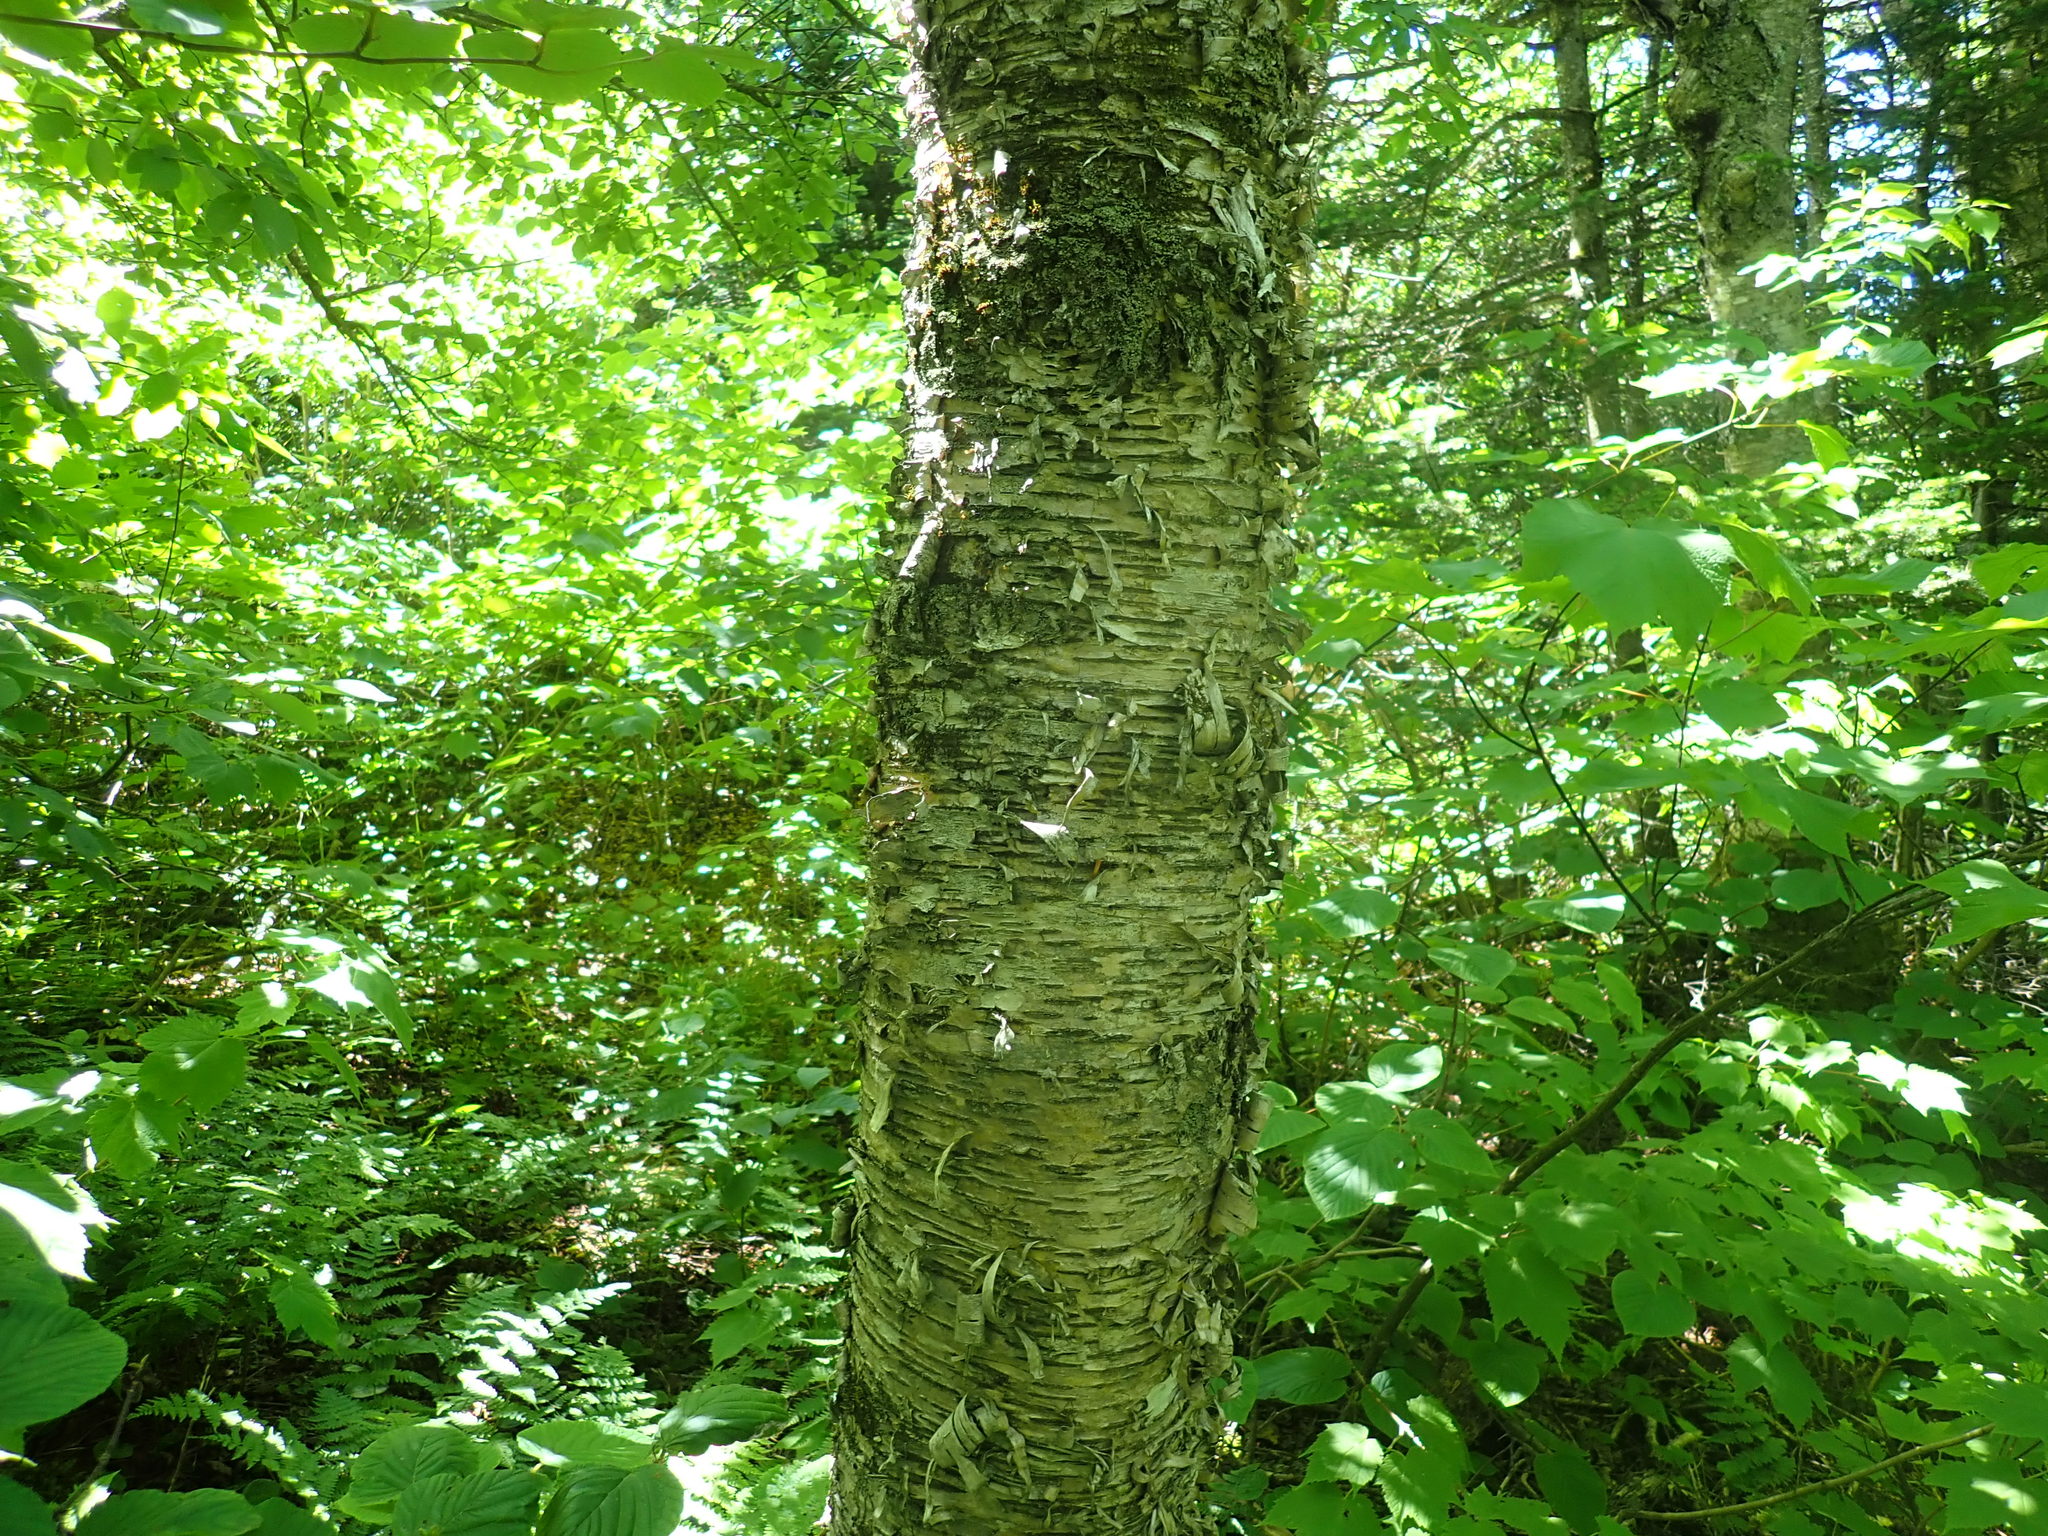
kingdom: Plantae
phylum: Tracheophyta
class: Magnoliopsida
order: Fagales
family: Betulaceae
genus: Betula
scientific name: Betula alleghaniensis
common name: Yellow birch
